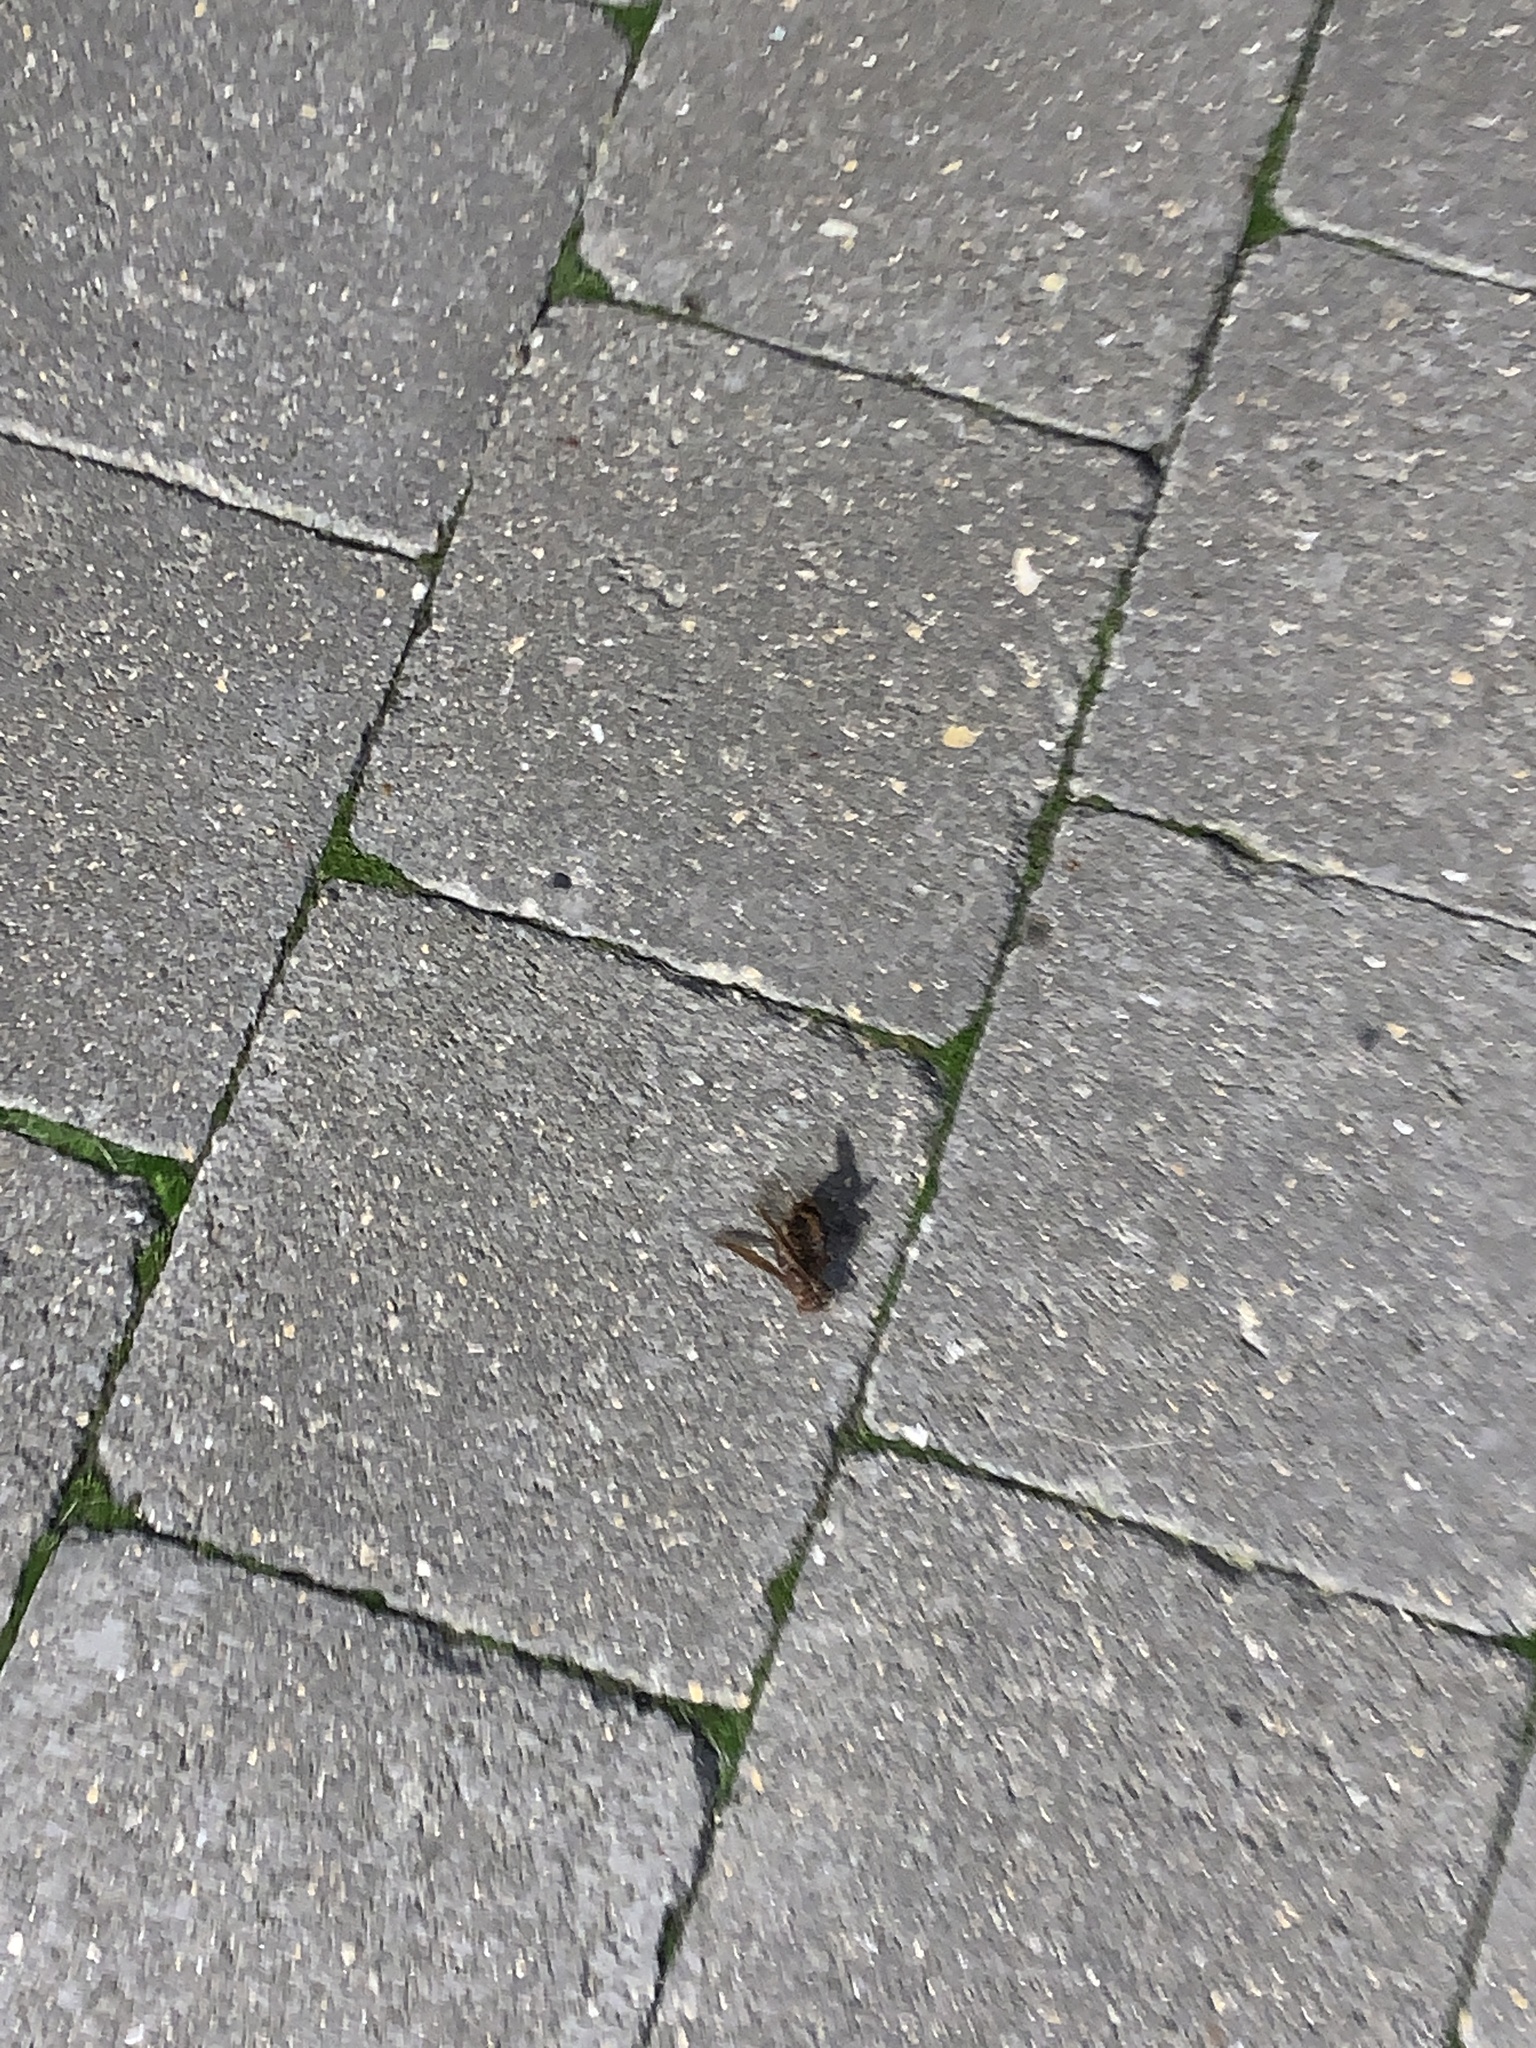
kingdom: Animalia
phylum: Arthropoda
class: Insecta
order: Hymenoptera
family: Vespidae
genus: Vespa
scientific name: Vespa crabro
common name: Hornet
